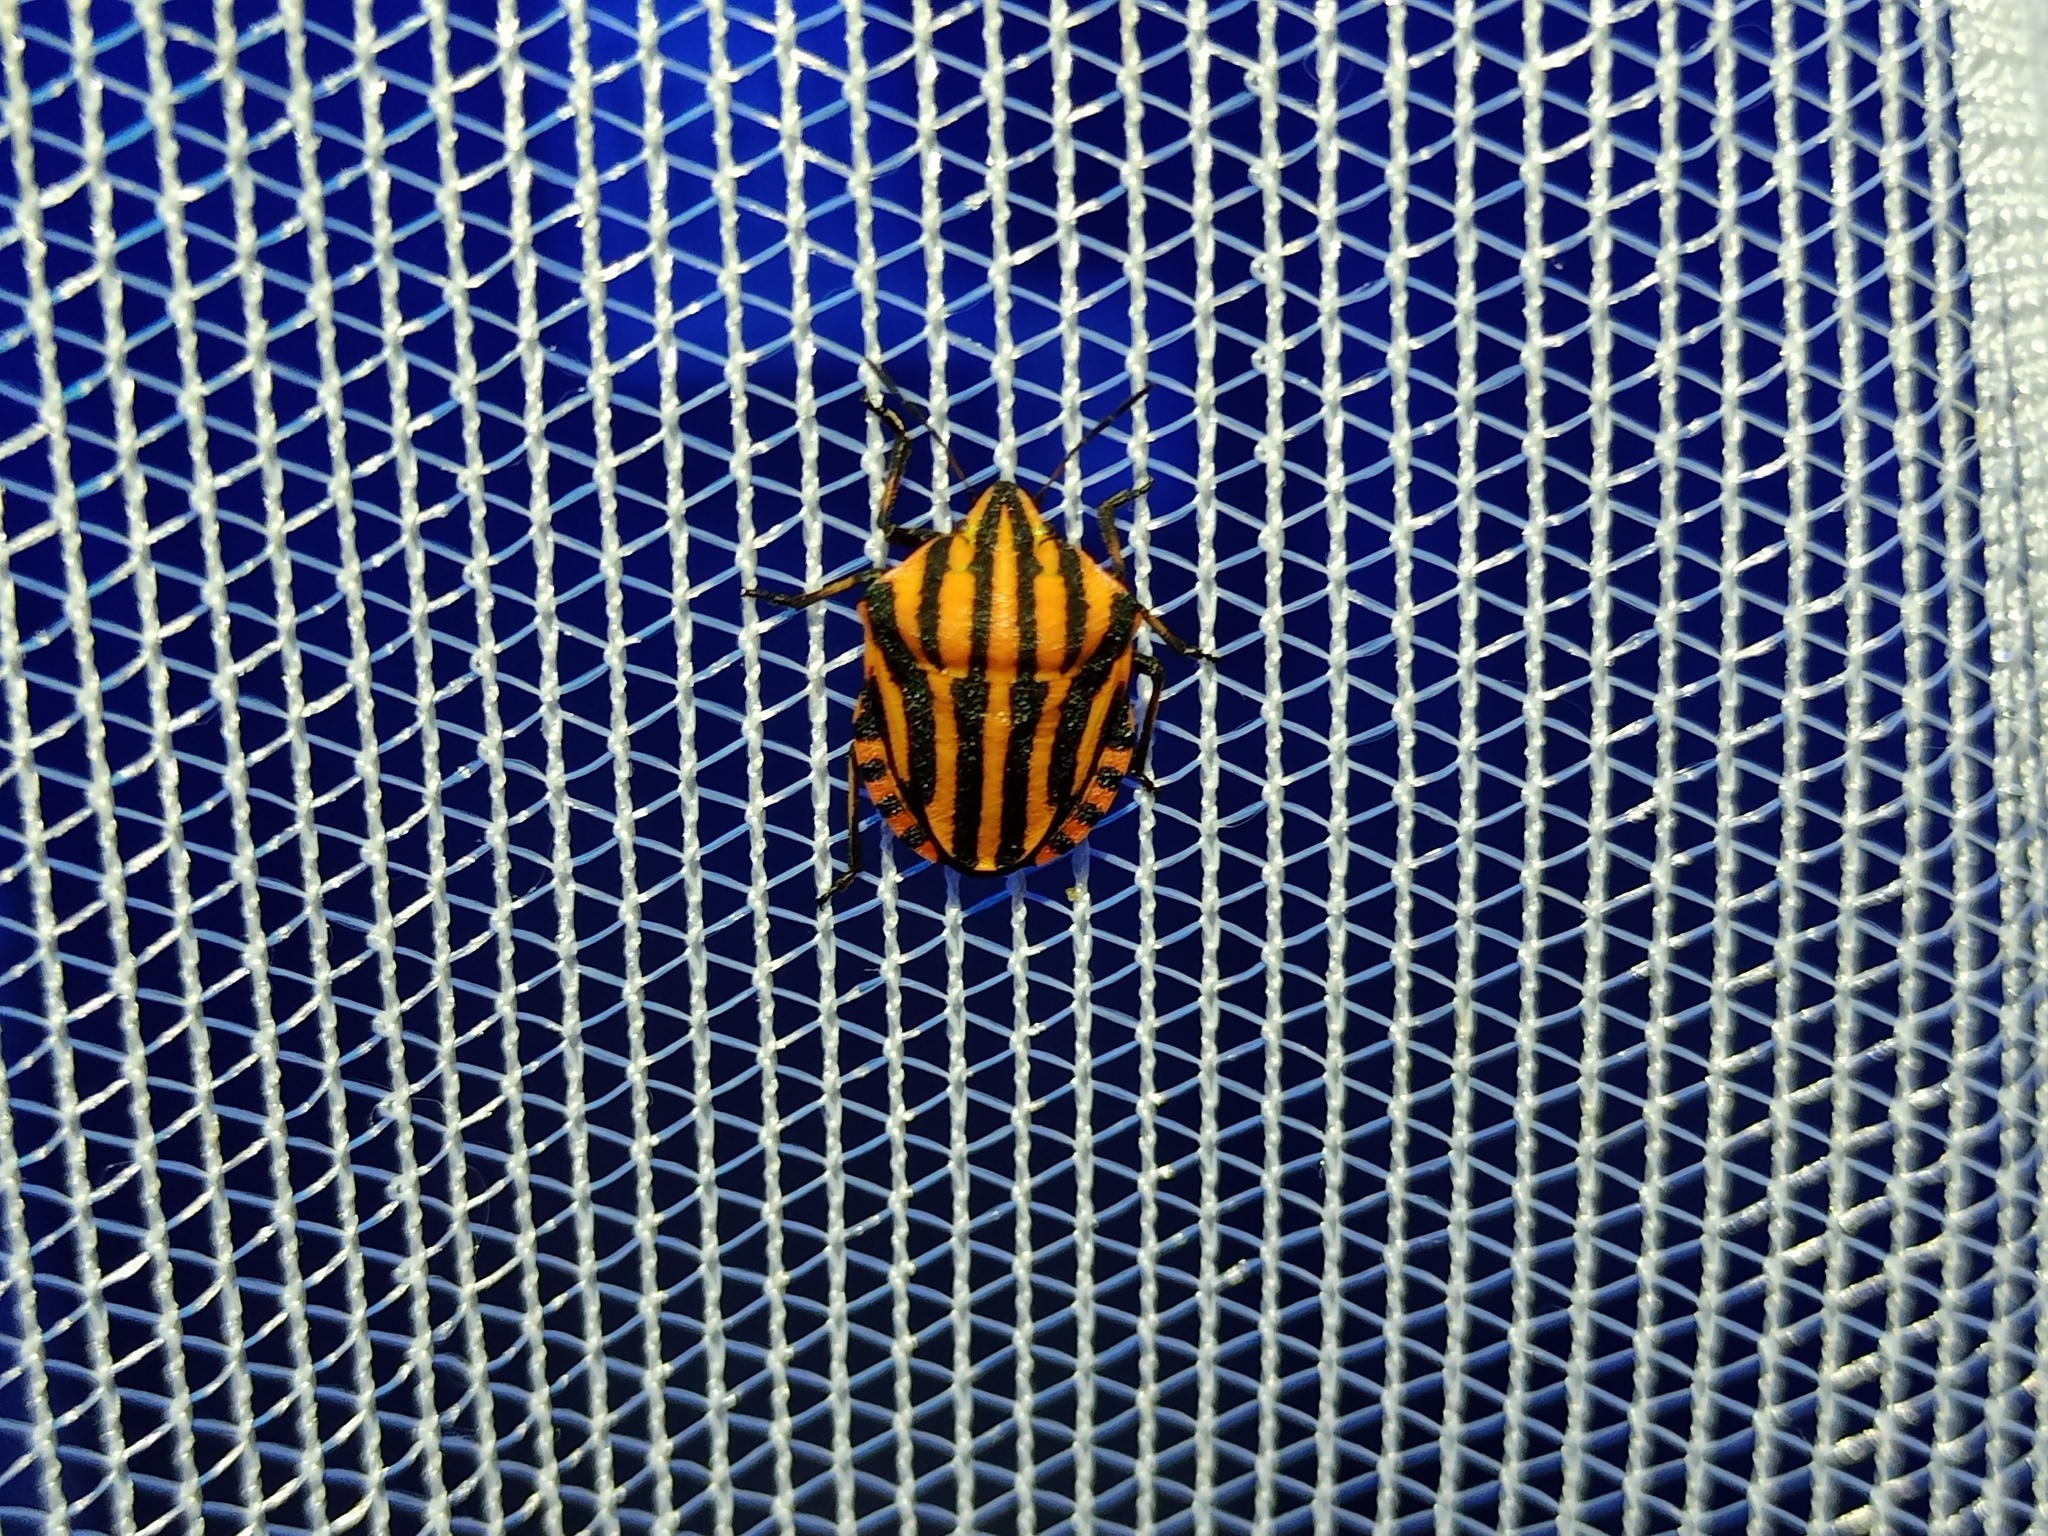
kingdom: Animalia
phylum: Arthropoda
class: Insecta
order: Hemiptera
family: Pentatomidae
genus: Graphosoma
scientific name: Graphosoma italicum
